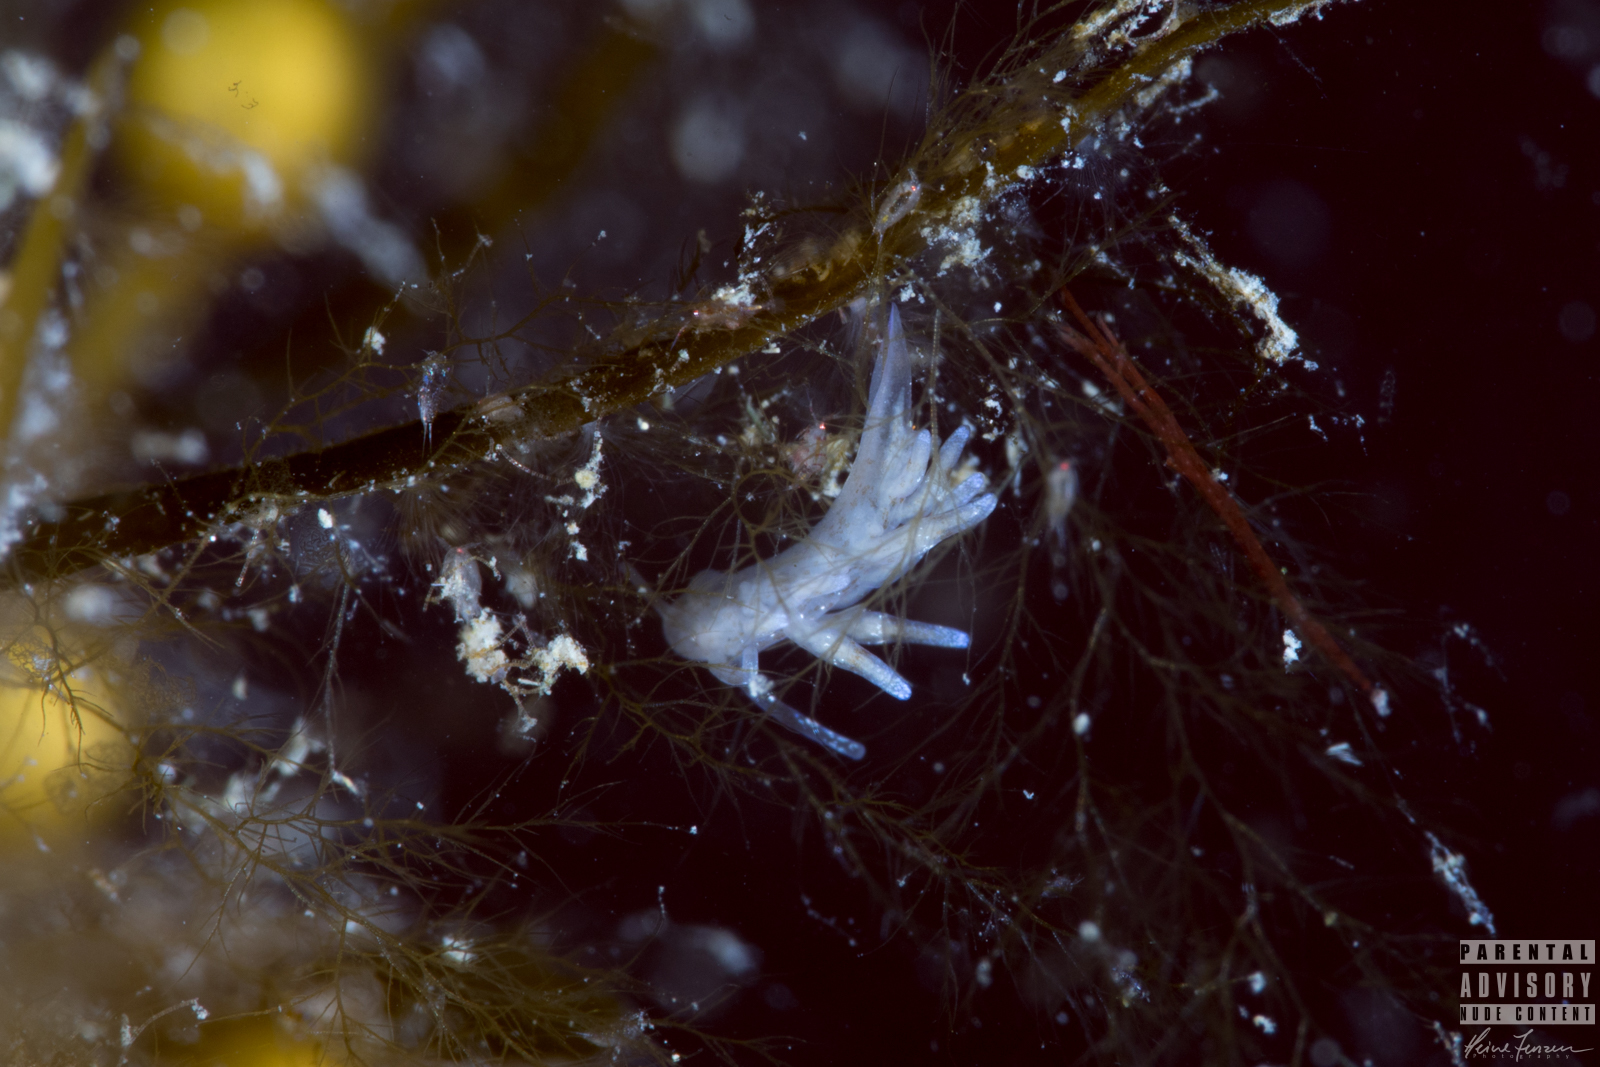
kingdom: Animalia
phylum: Mollusca
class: Gastropoda
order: Nudibranchia
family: Eubranchidae
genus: Eubranchus
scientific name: Eubranchus rupium
